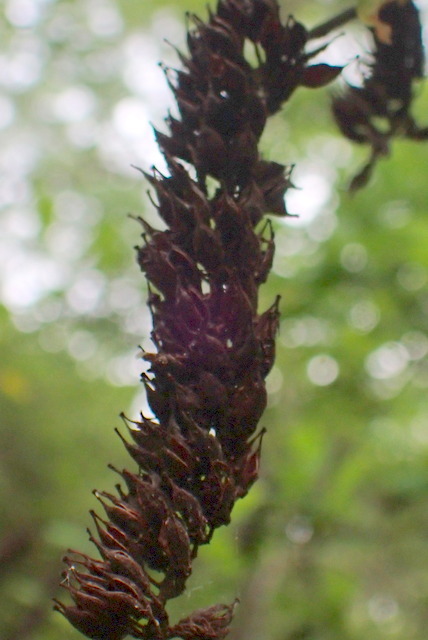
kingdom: Plantae
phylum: Tracheophyta
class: Magnoliopsida
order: Saxifragales
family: Iteaceae
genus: Itea
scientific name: Itea virginica
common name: Sweetspire
